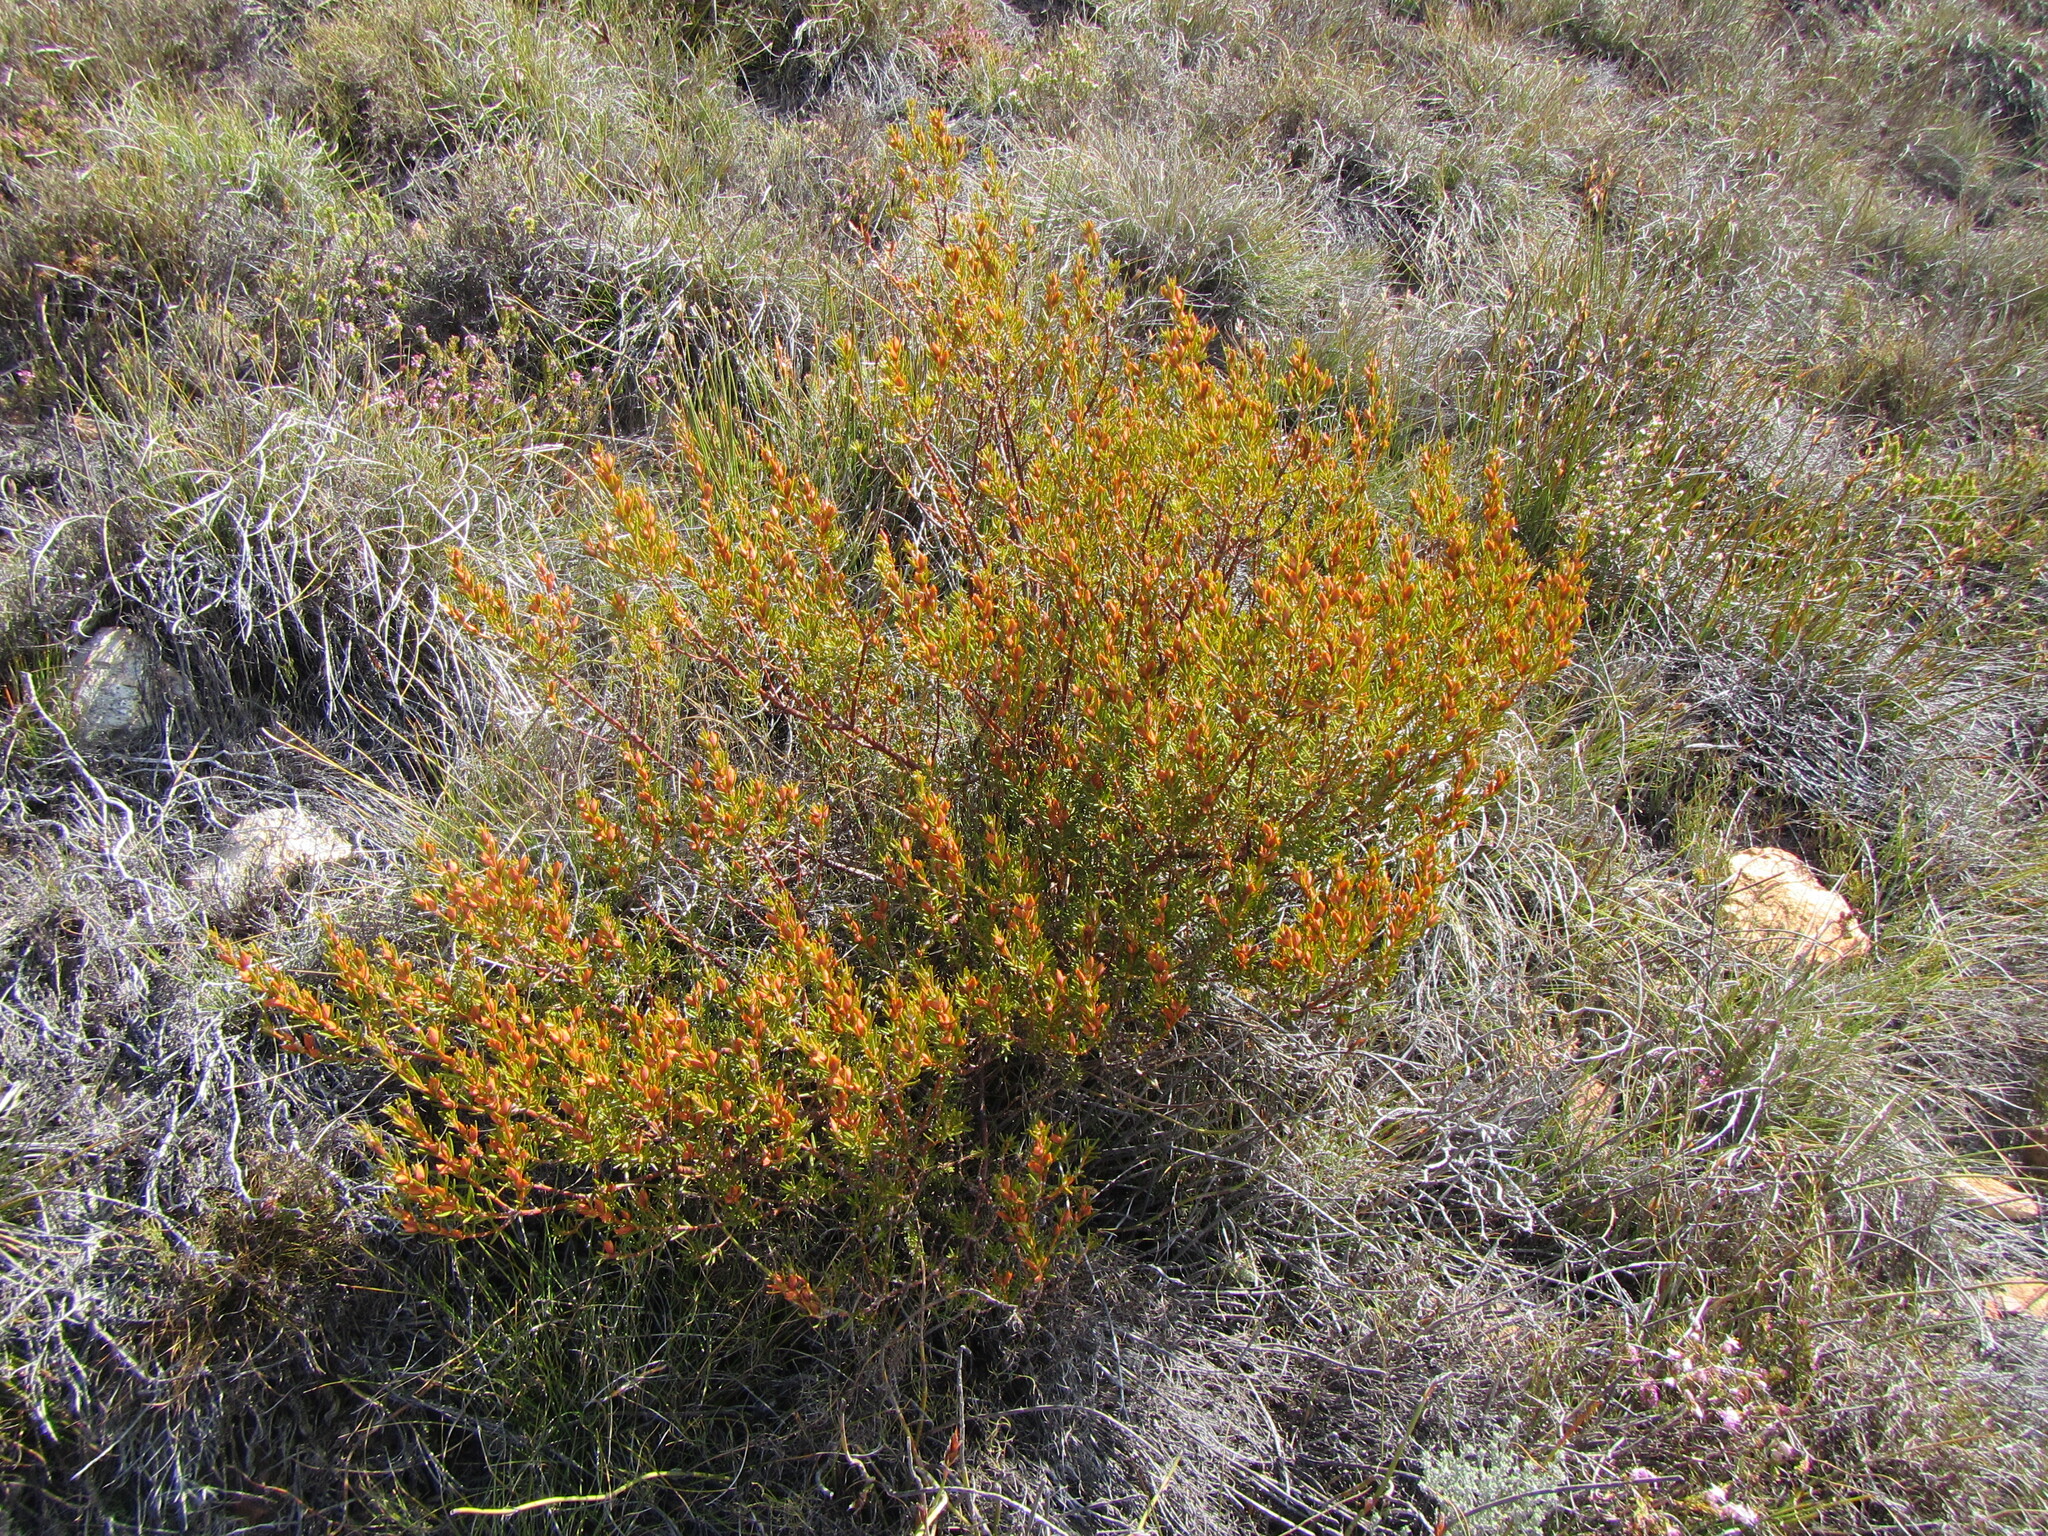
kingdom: Plantae
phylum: Tracheophyta
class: Magnoliopsida
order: Fabales
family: Fabaceae
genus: Cyclopia
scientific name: Cyclopia glabra
